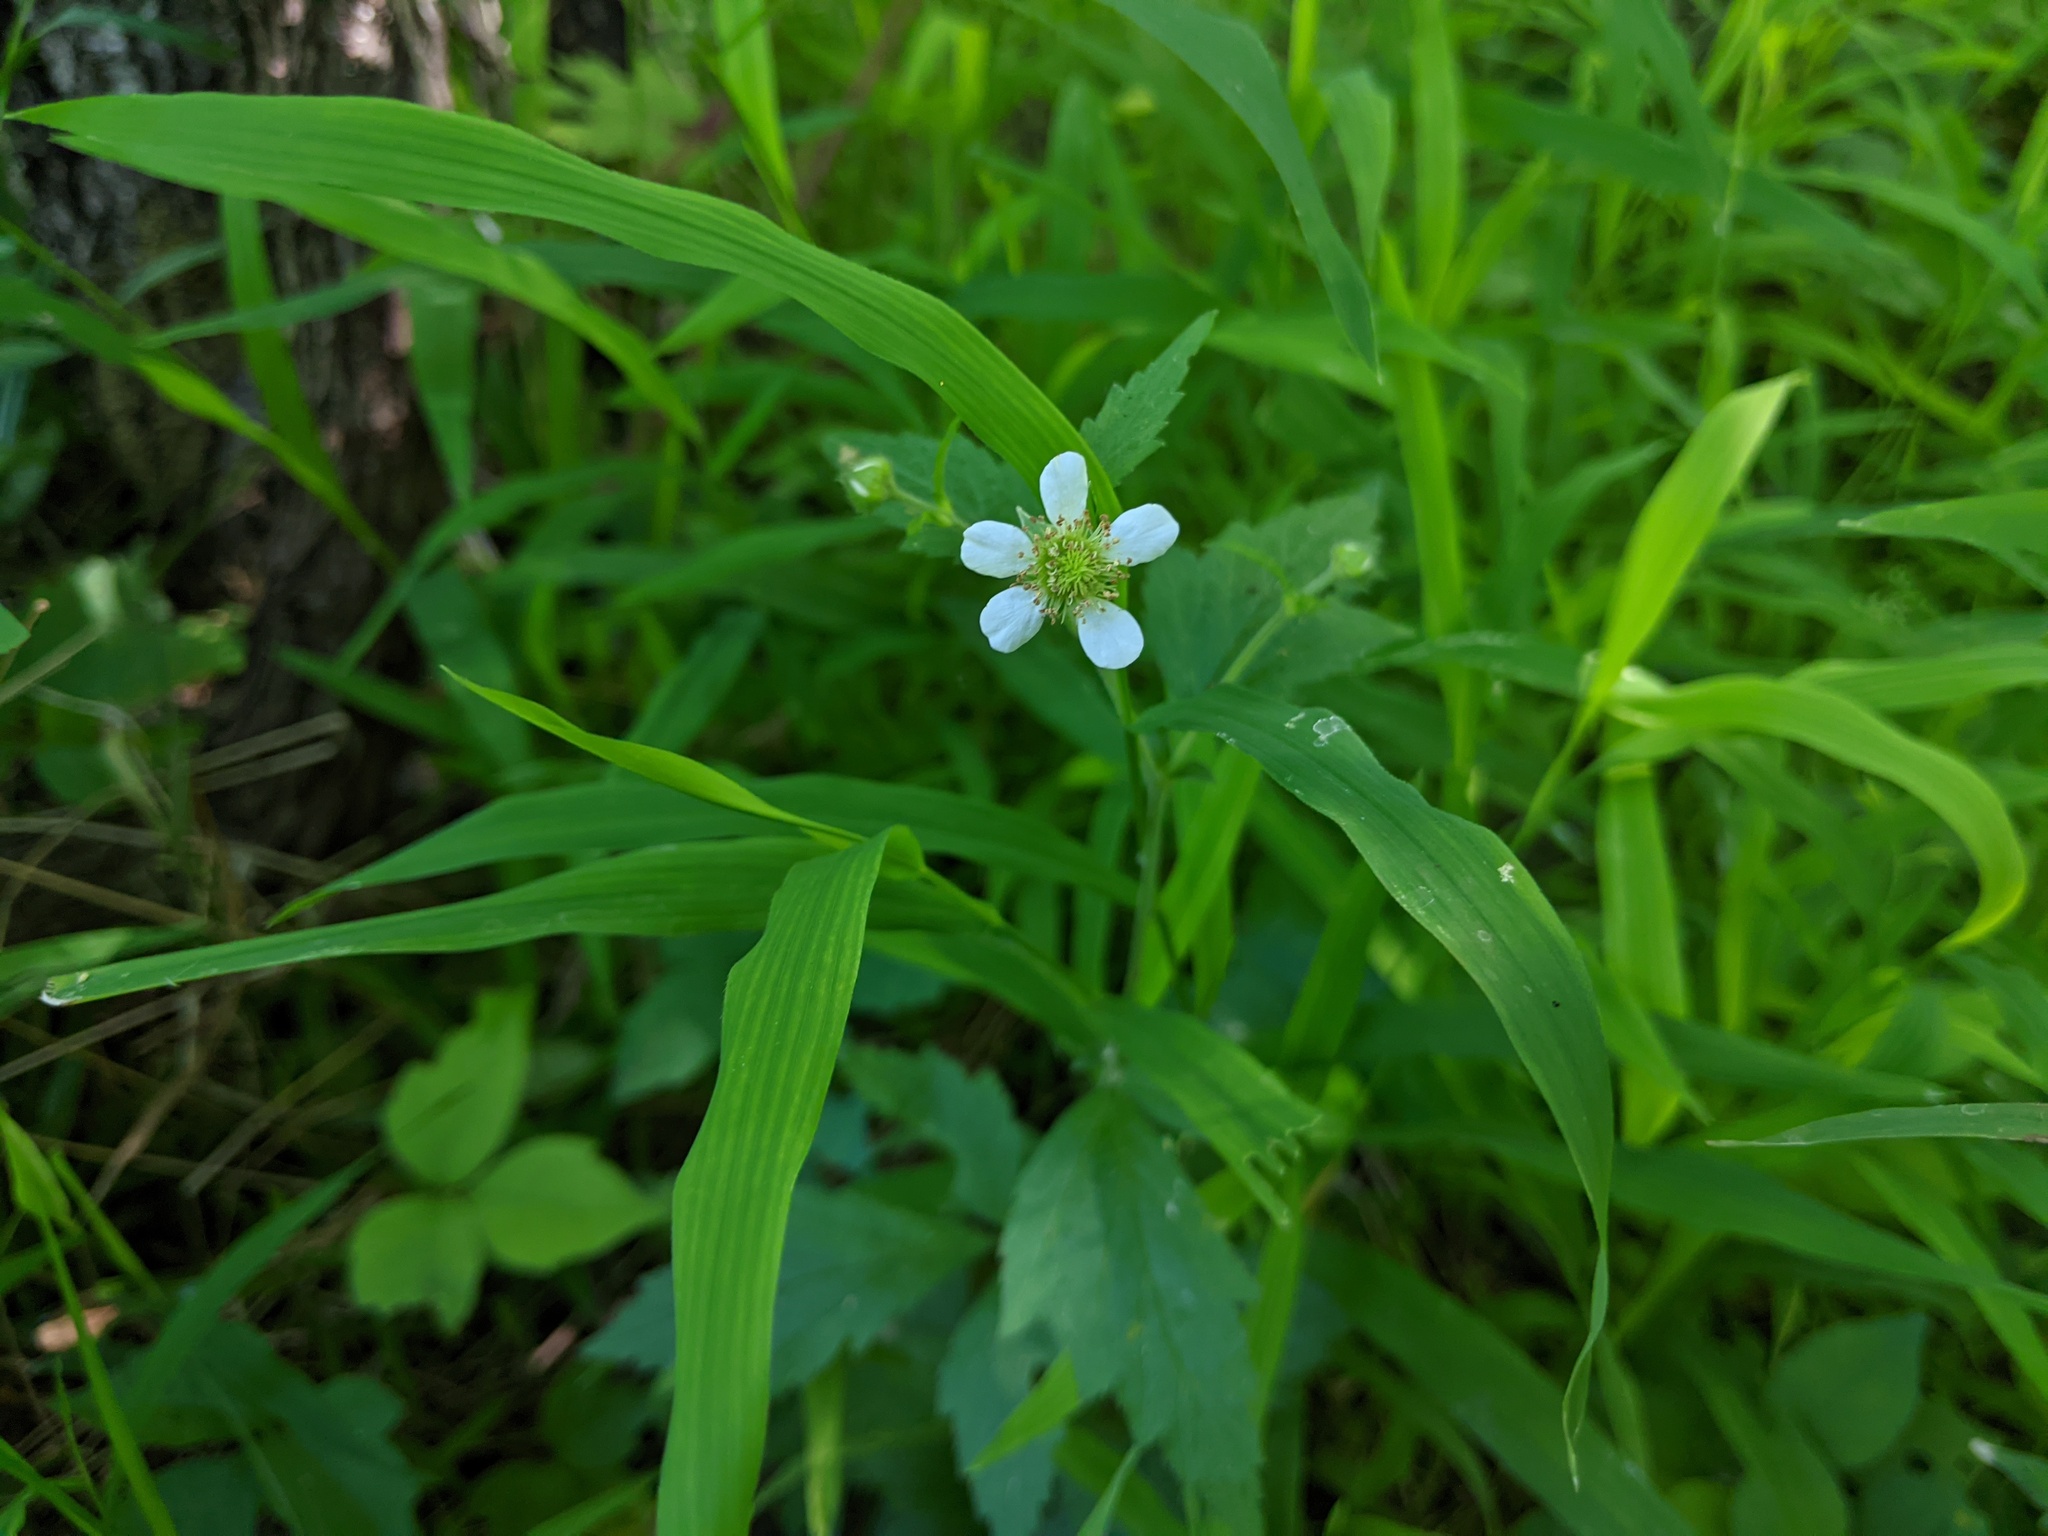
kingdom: Plantae
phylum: Tracheophyta
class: Magnoliopsida
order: Rosales
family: Rosaceae
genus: Geum
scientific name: Geum canadense
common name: White avens
